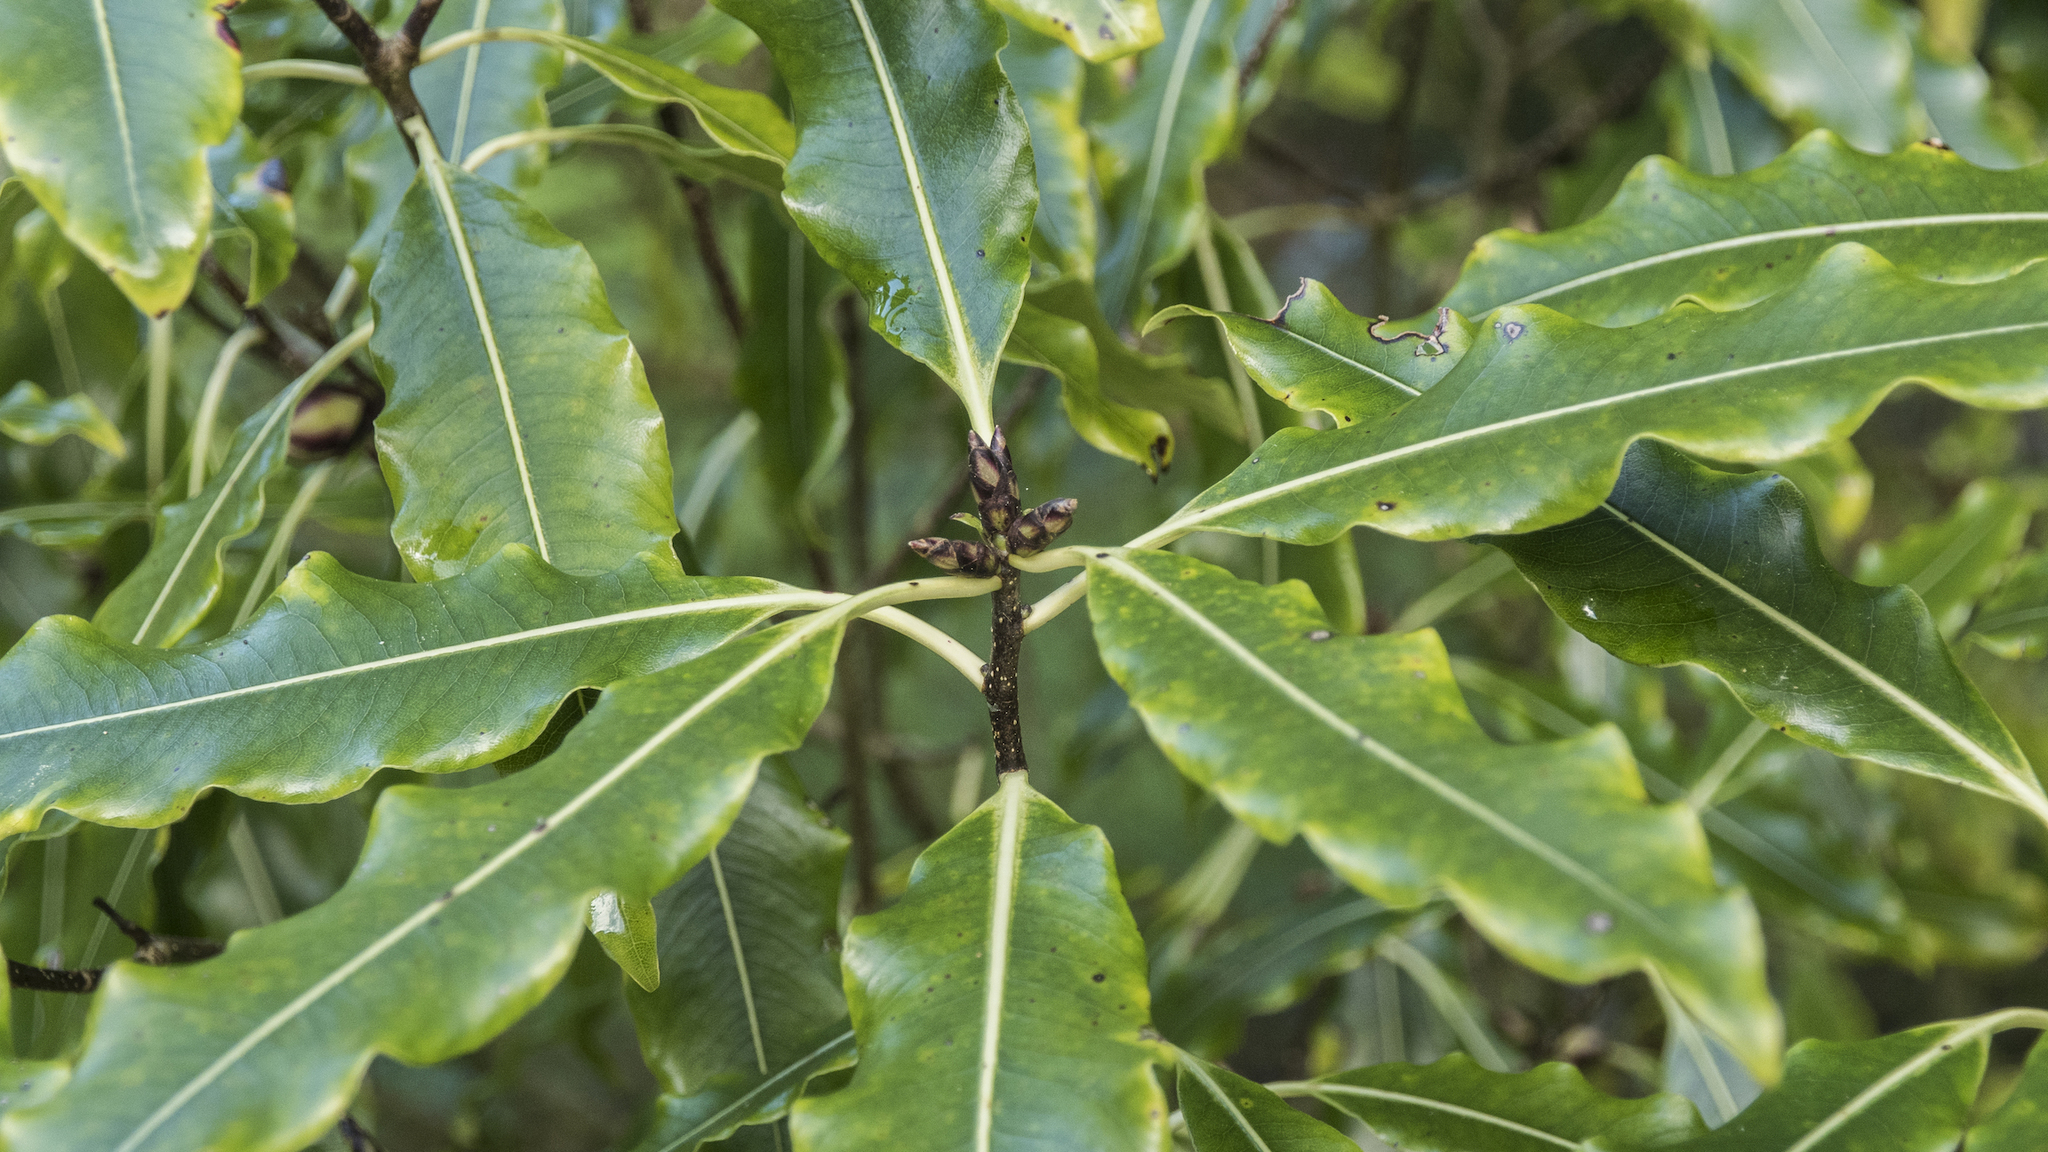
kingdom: Plantae
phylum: Tracheophyta
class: Magnoliopsida
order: Apiales
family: Pittosporaceae
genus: Pittosporum
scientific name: Pittosporum eugenioides
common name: Lemonwood
